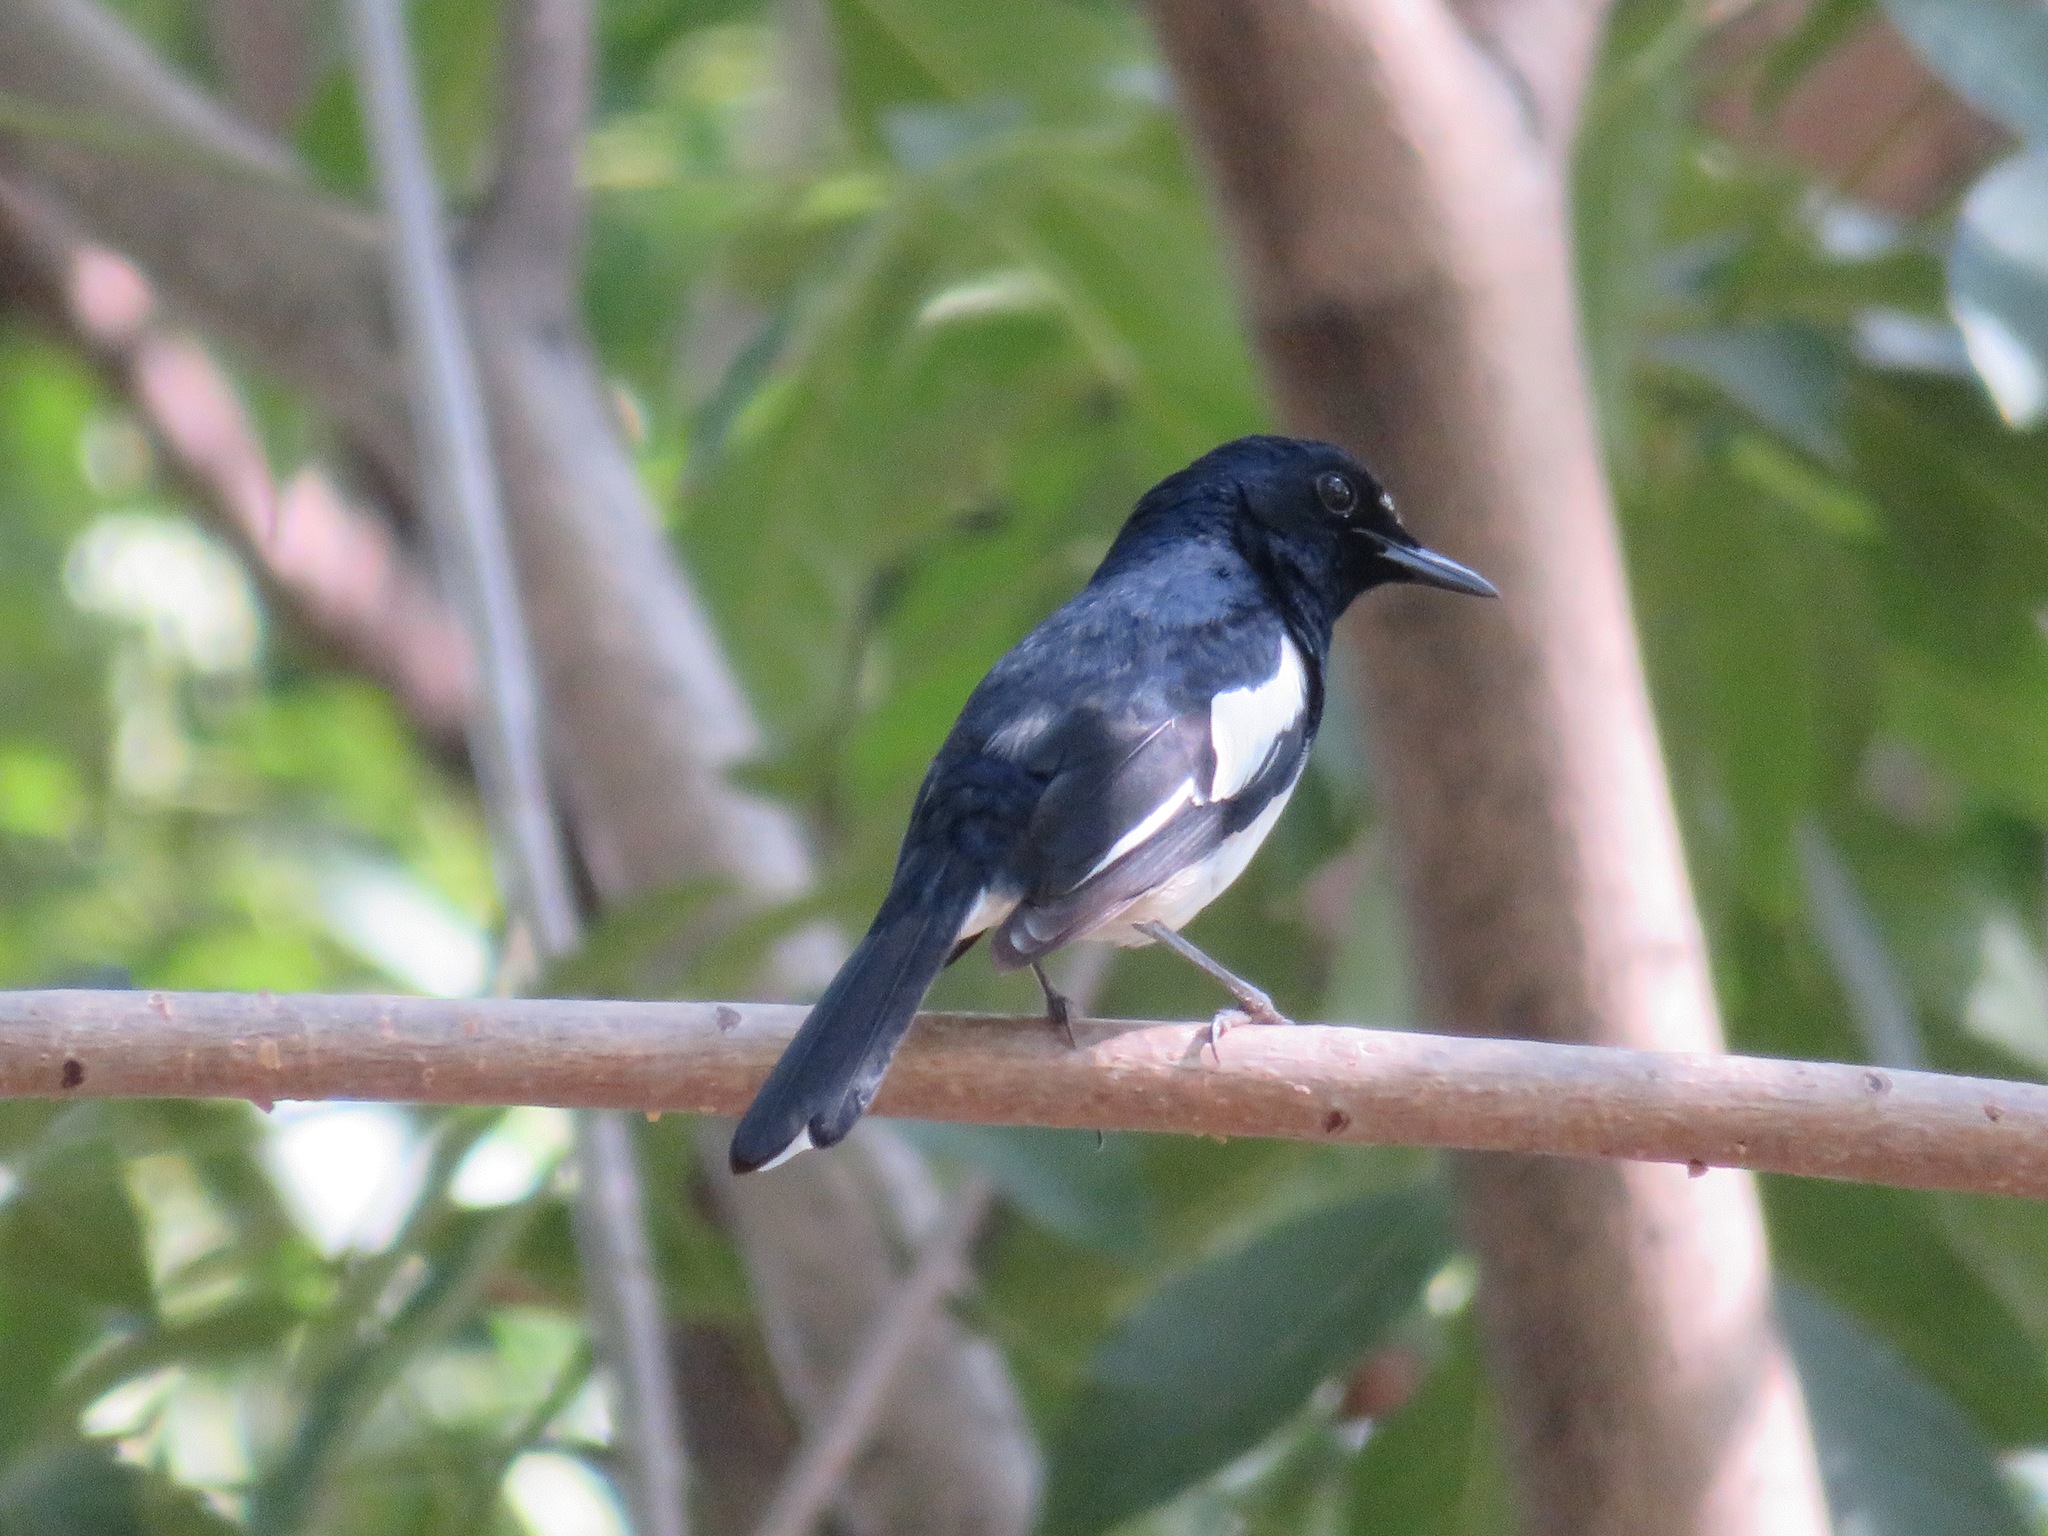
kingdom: Animalia
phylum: Chordata
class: Aves
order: Passeriformes
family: Muscicapidae
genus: Copsychus
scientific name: Copsychus saularis
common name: Oriental magpie-robin
